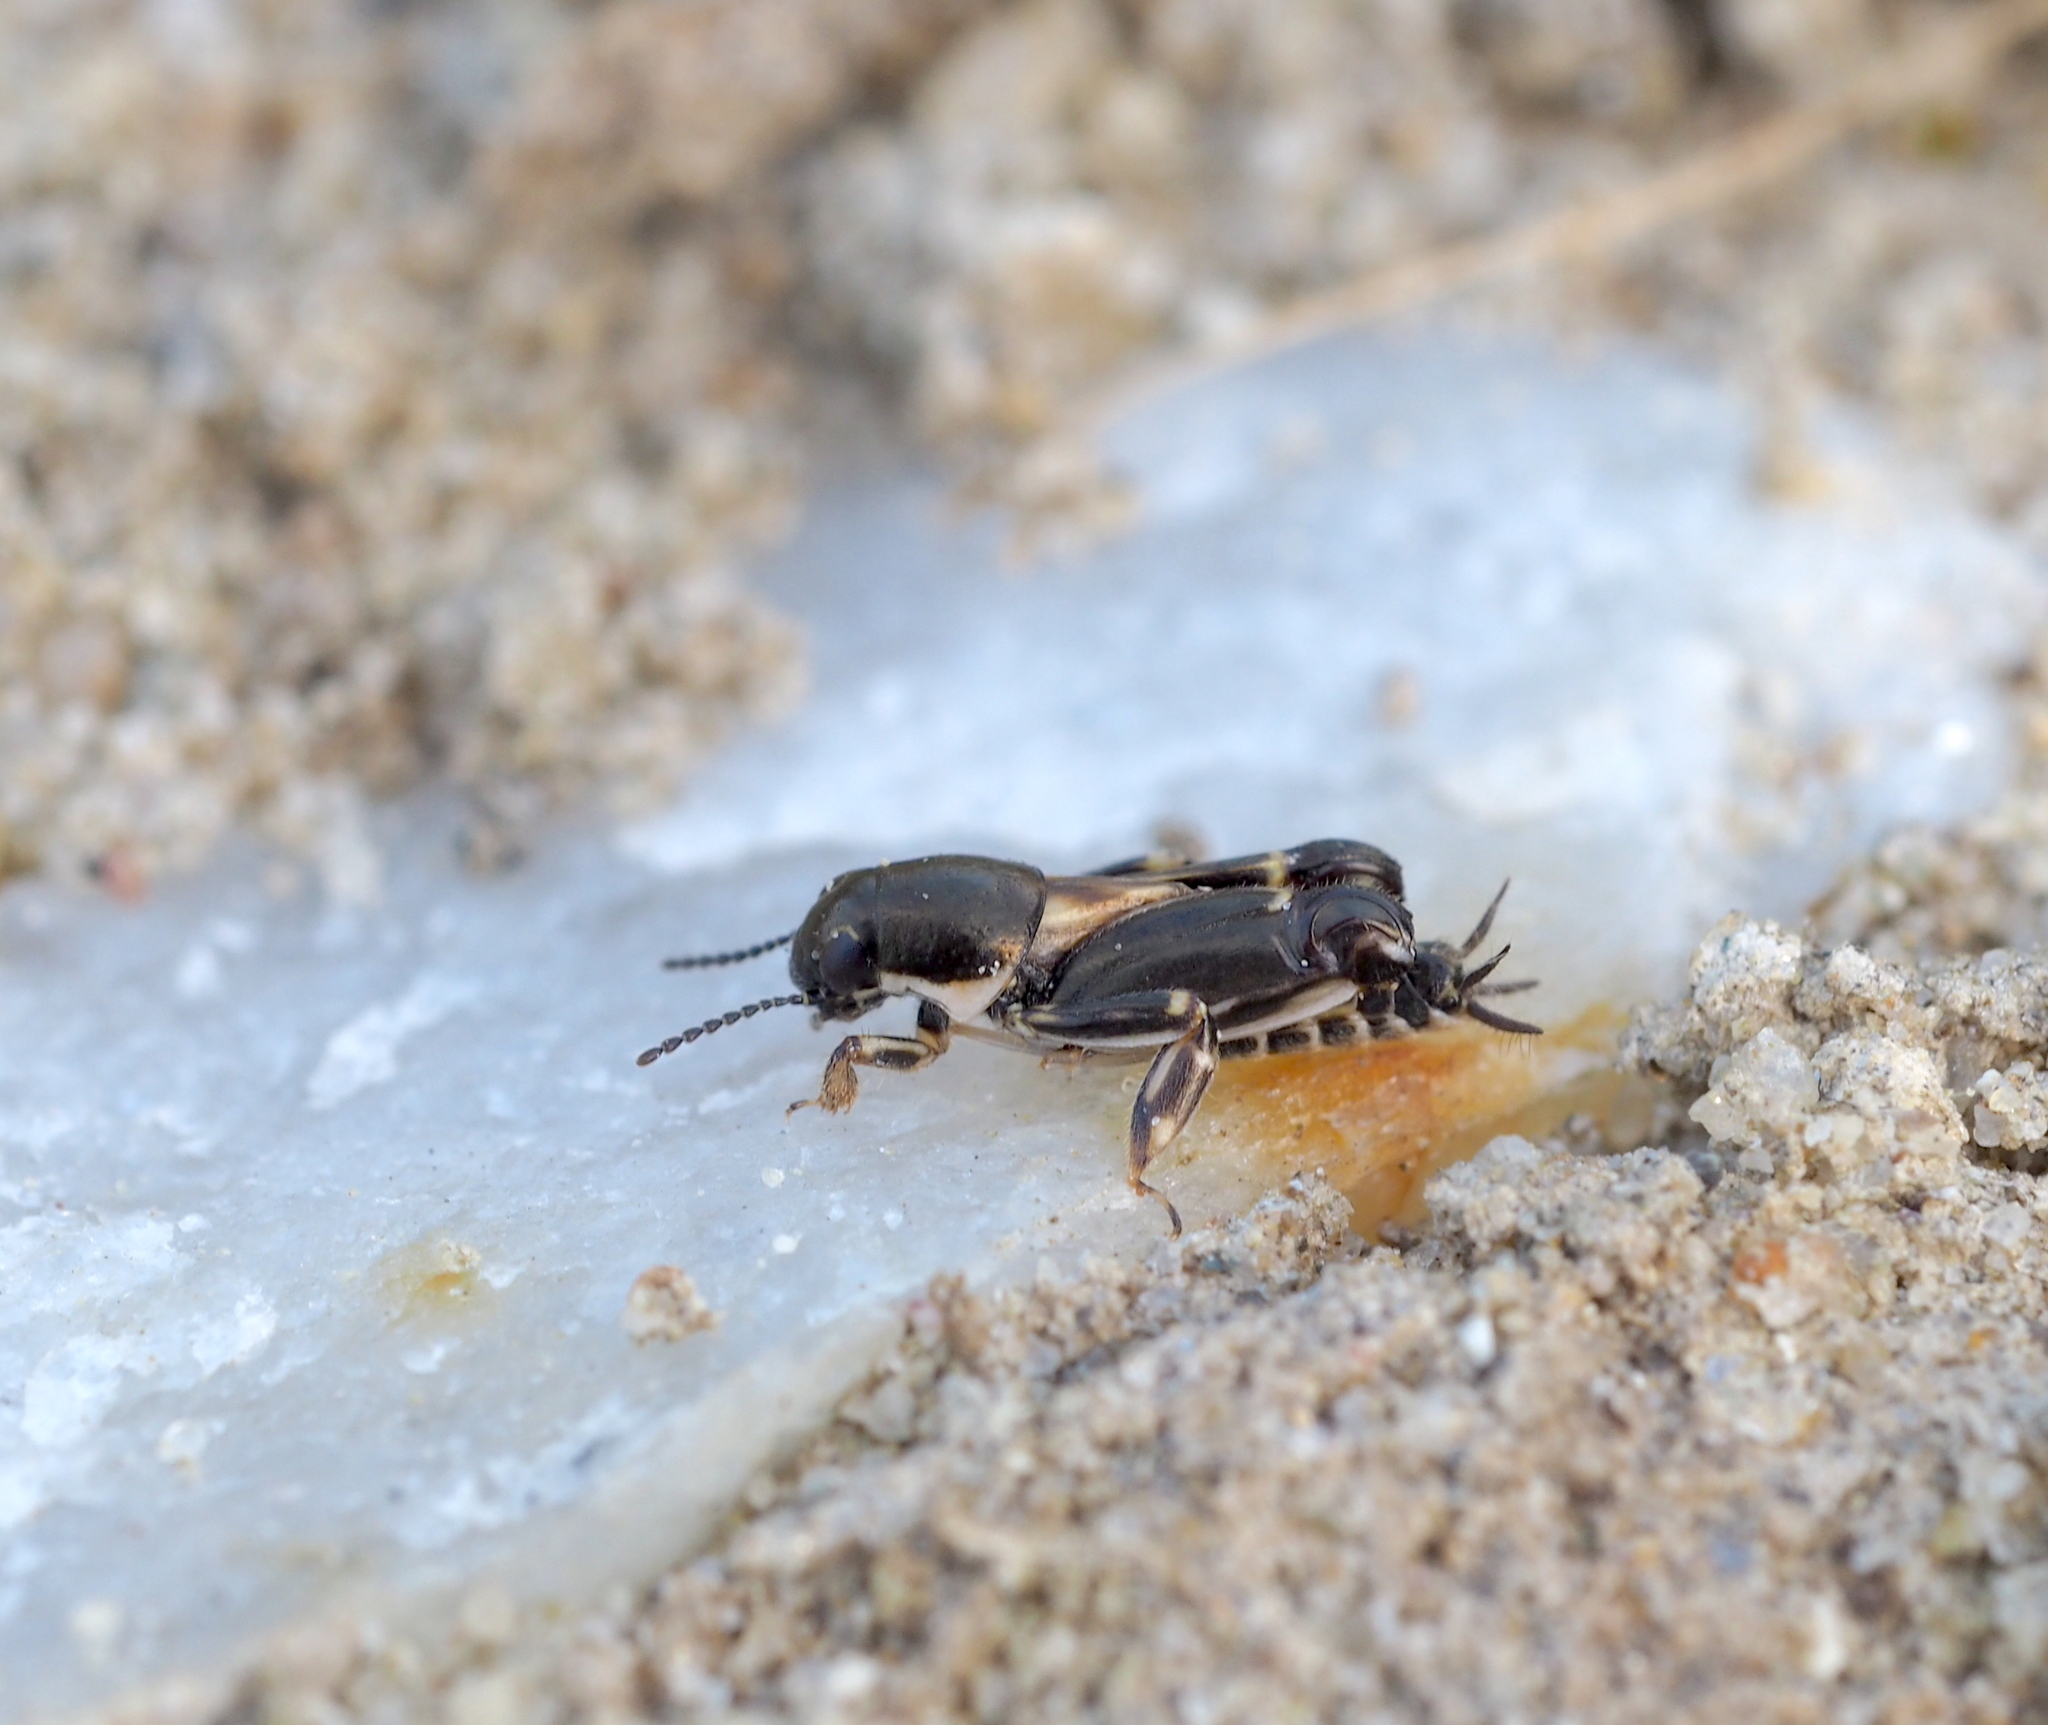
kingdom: Animalia
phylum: Arthropoda
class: Insecta
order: Orthoptera
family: Tridactylidae
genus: Xya
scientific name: Xya variegata
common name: Le tridactyle panaché
